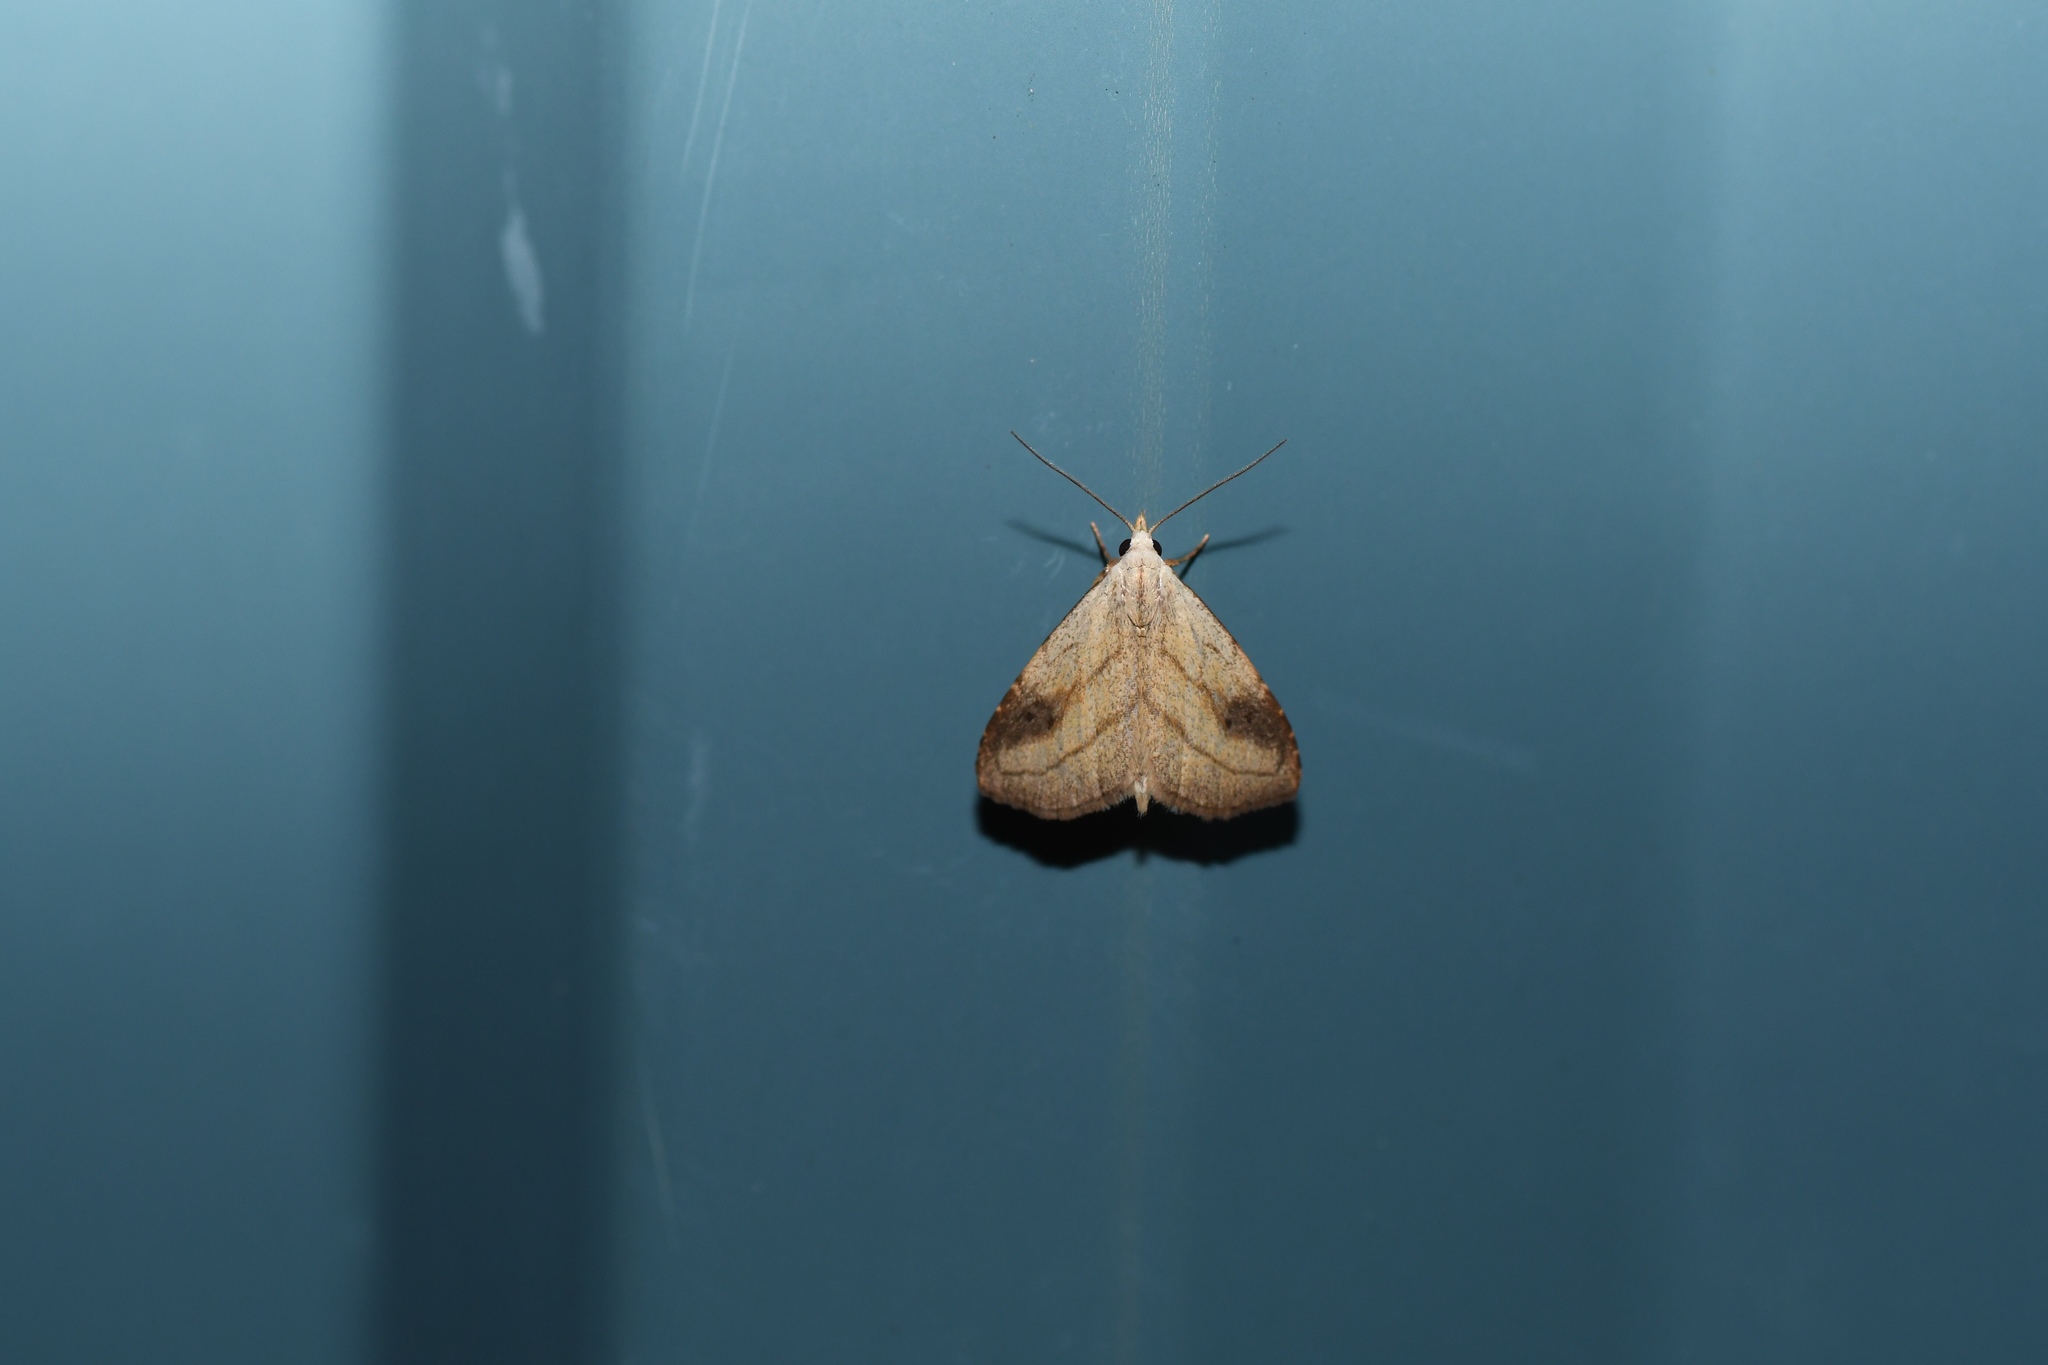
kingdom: Animalia
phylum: Arthropoda
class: Insecta
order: Lepidoptera
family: Erebidae
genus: Rivula
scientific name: Rivula propinqualis
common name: Spotted grass moth
